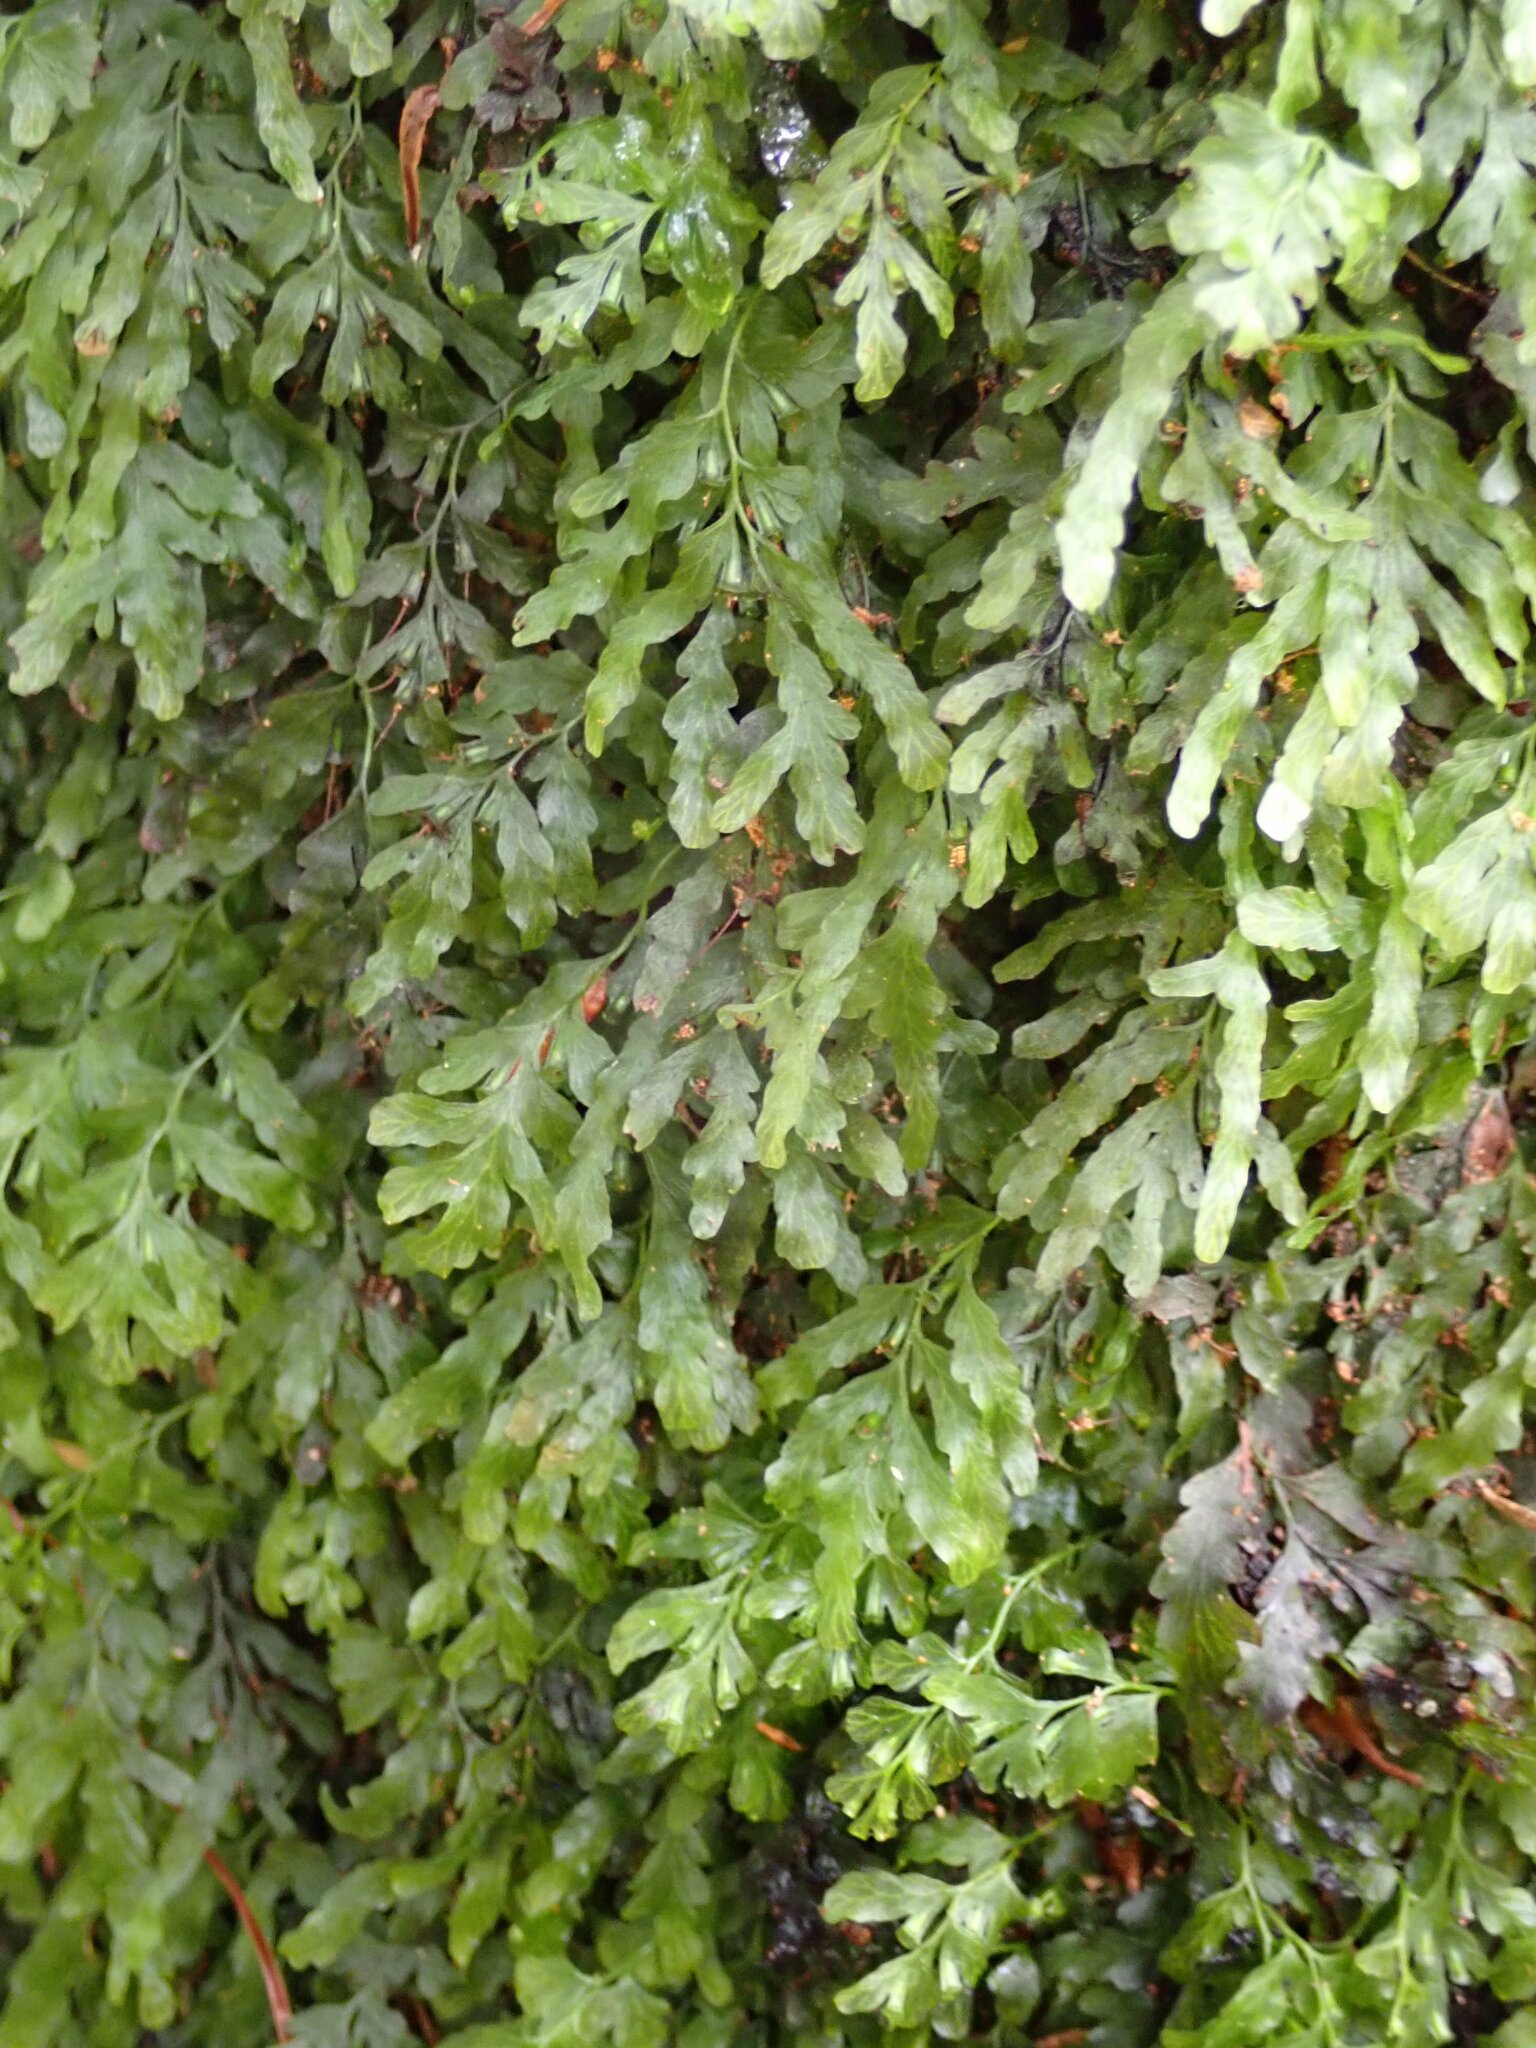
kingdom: Plantae
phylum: Tracheophyta
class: Polypodiopsida
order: Hymenophyllales
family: Hymenophyllaceae
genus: Polyphlebium
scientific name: Polyphlebium venosum
